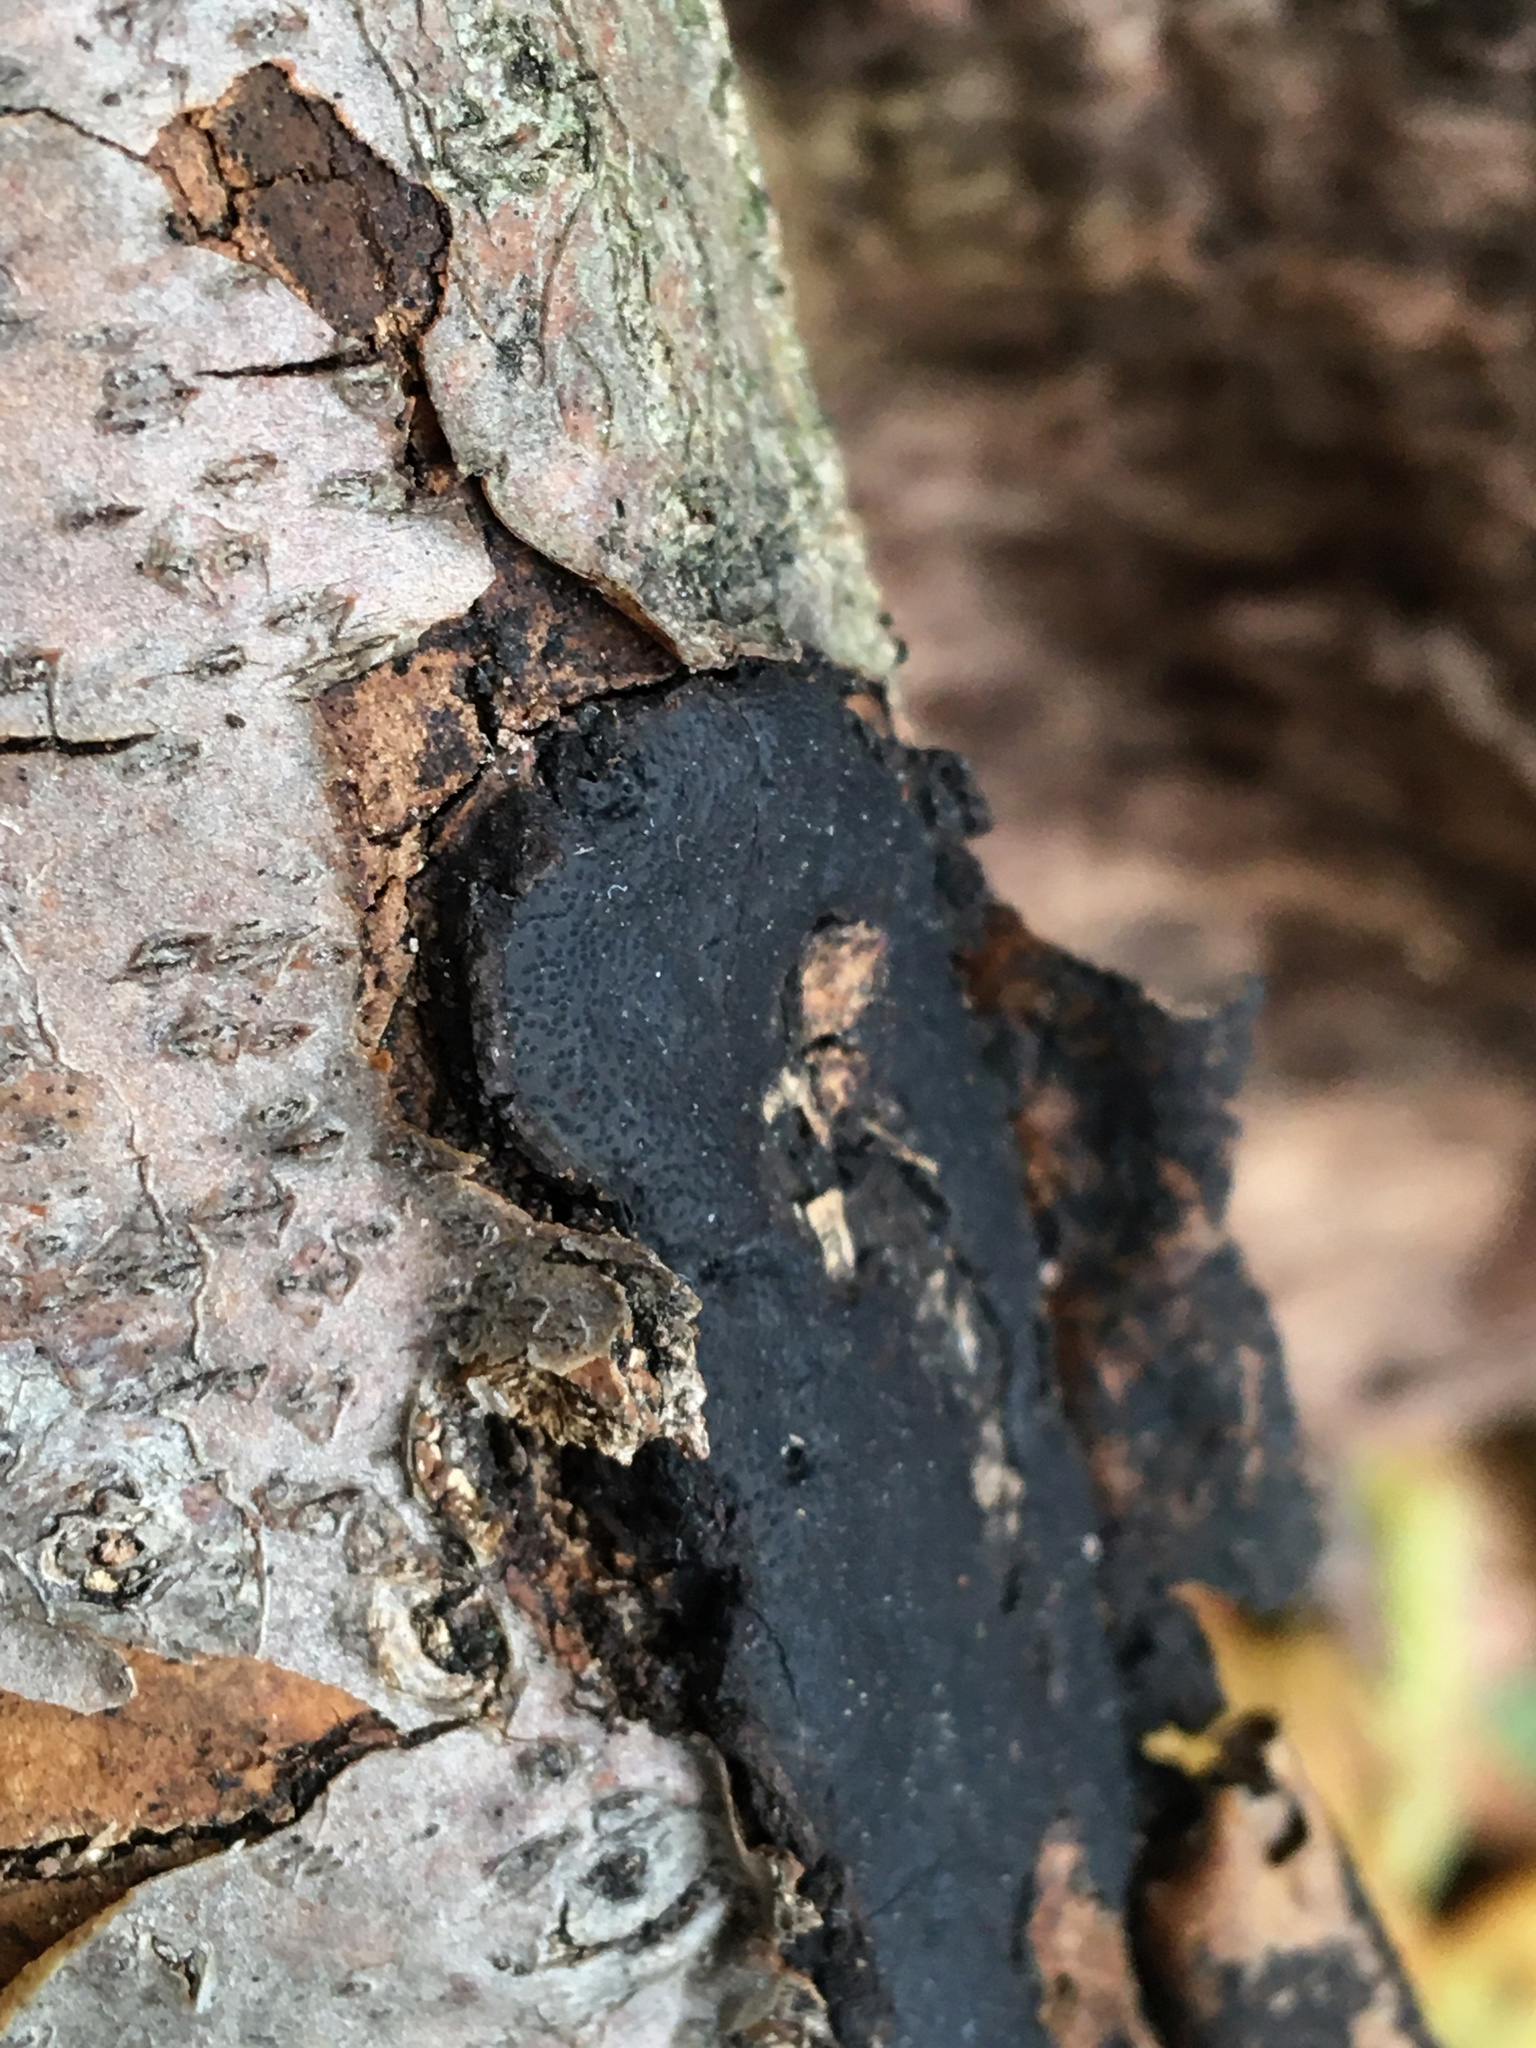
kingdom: Fungi
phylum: Ascomycota
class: Sordariomycetes
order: Xylariales
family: Graphostromataceae
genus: Biscogniauxia
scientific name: Biscogniauxia mediterranea
